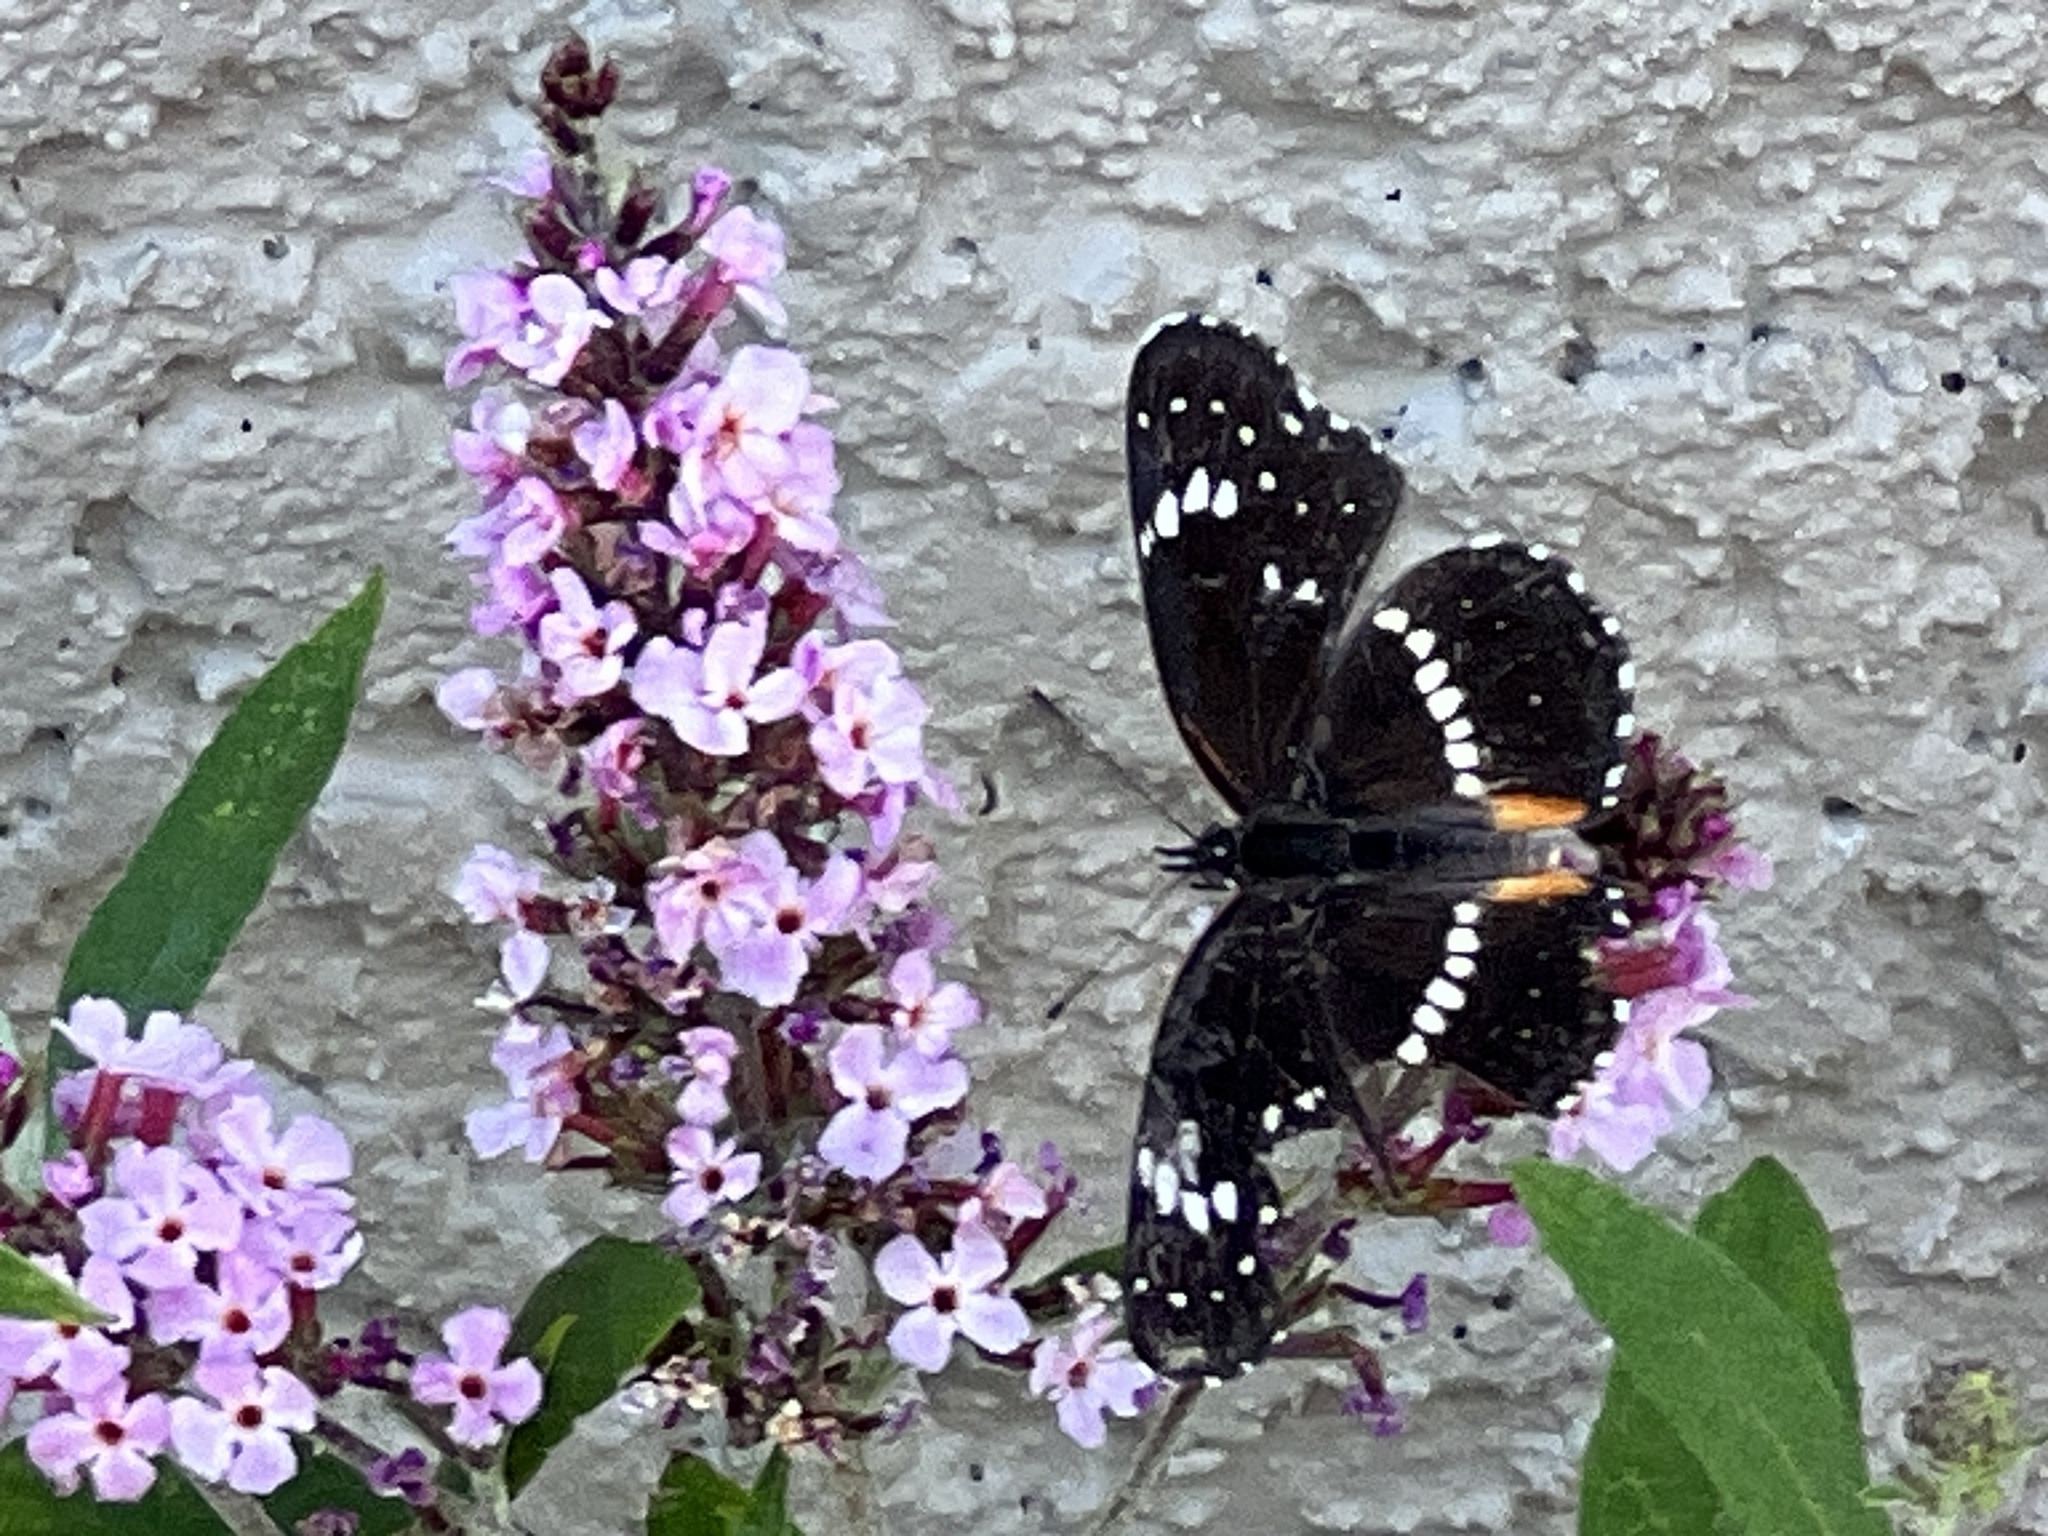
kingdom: Animalia
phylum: Arthropoda
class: Insecta
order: Lepidoptera
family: Nymphalidae
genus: Chlosyne
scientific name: Chlosyne lacinia
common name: Bordered patch
